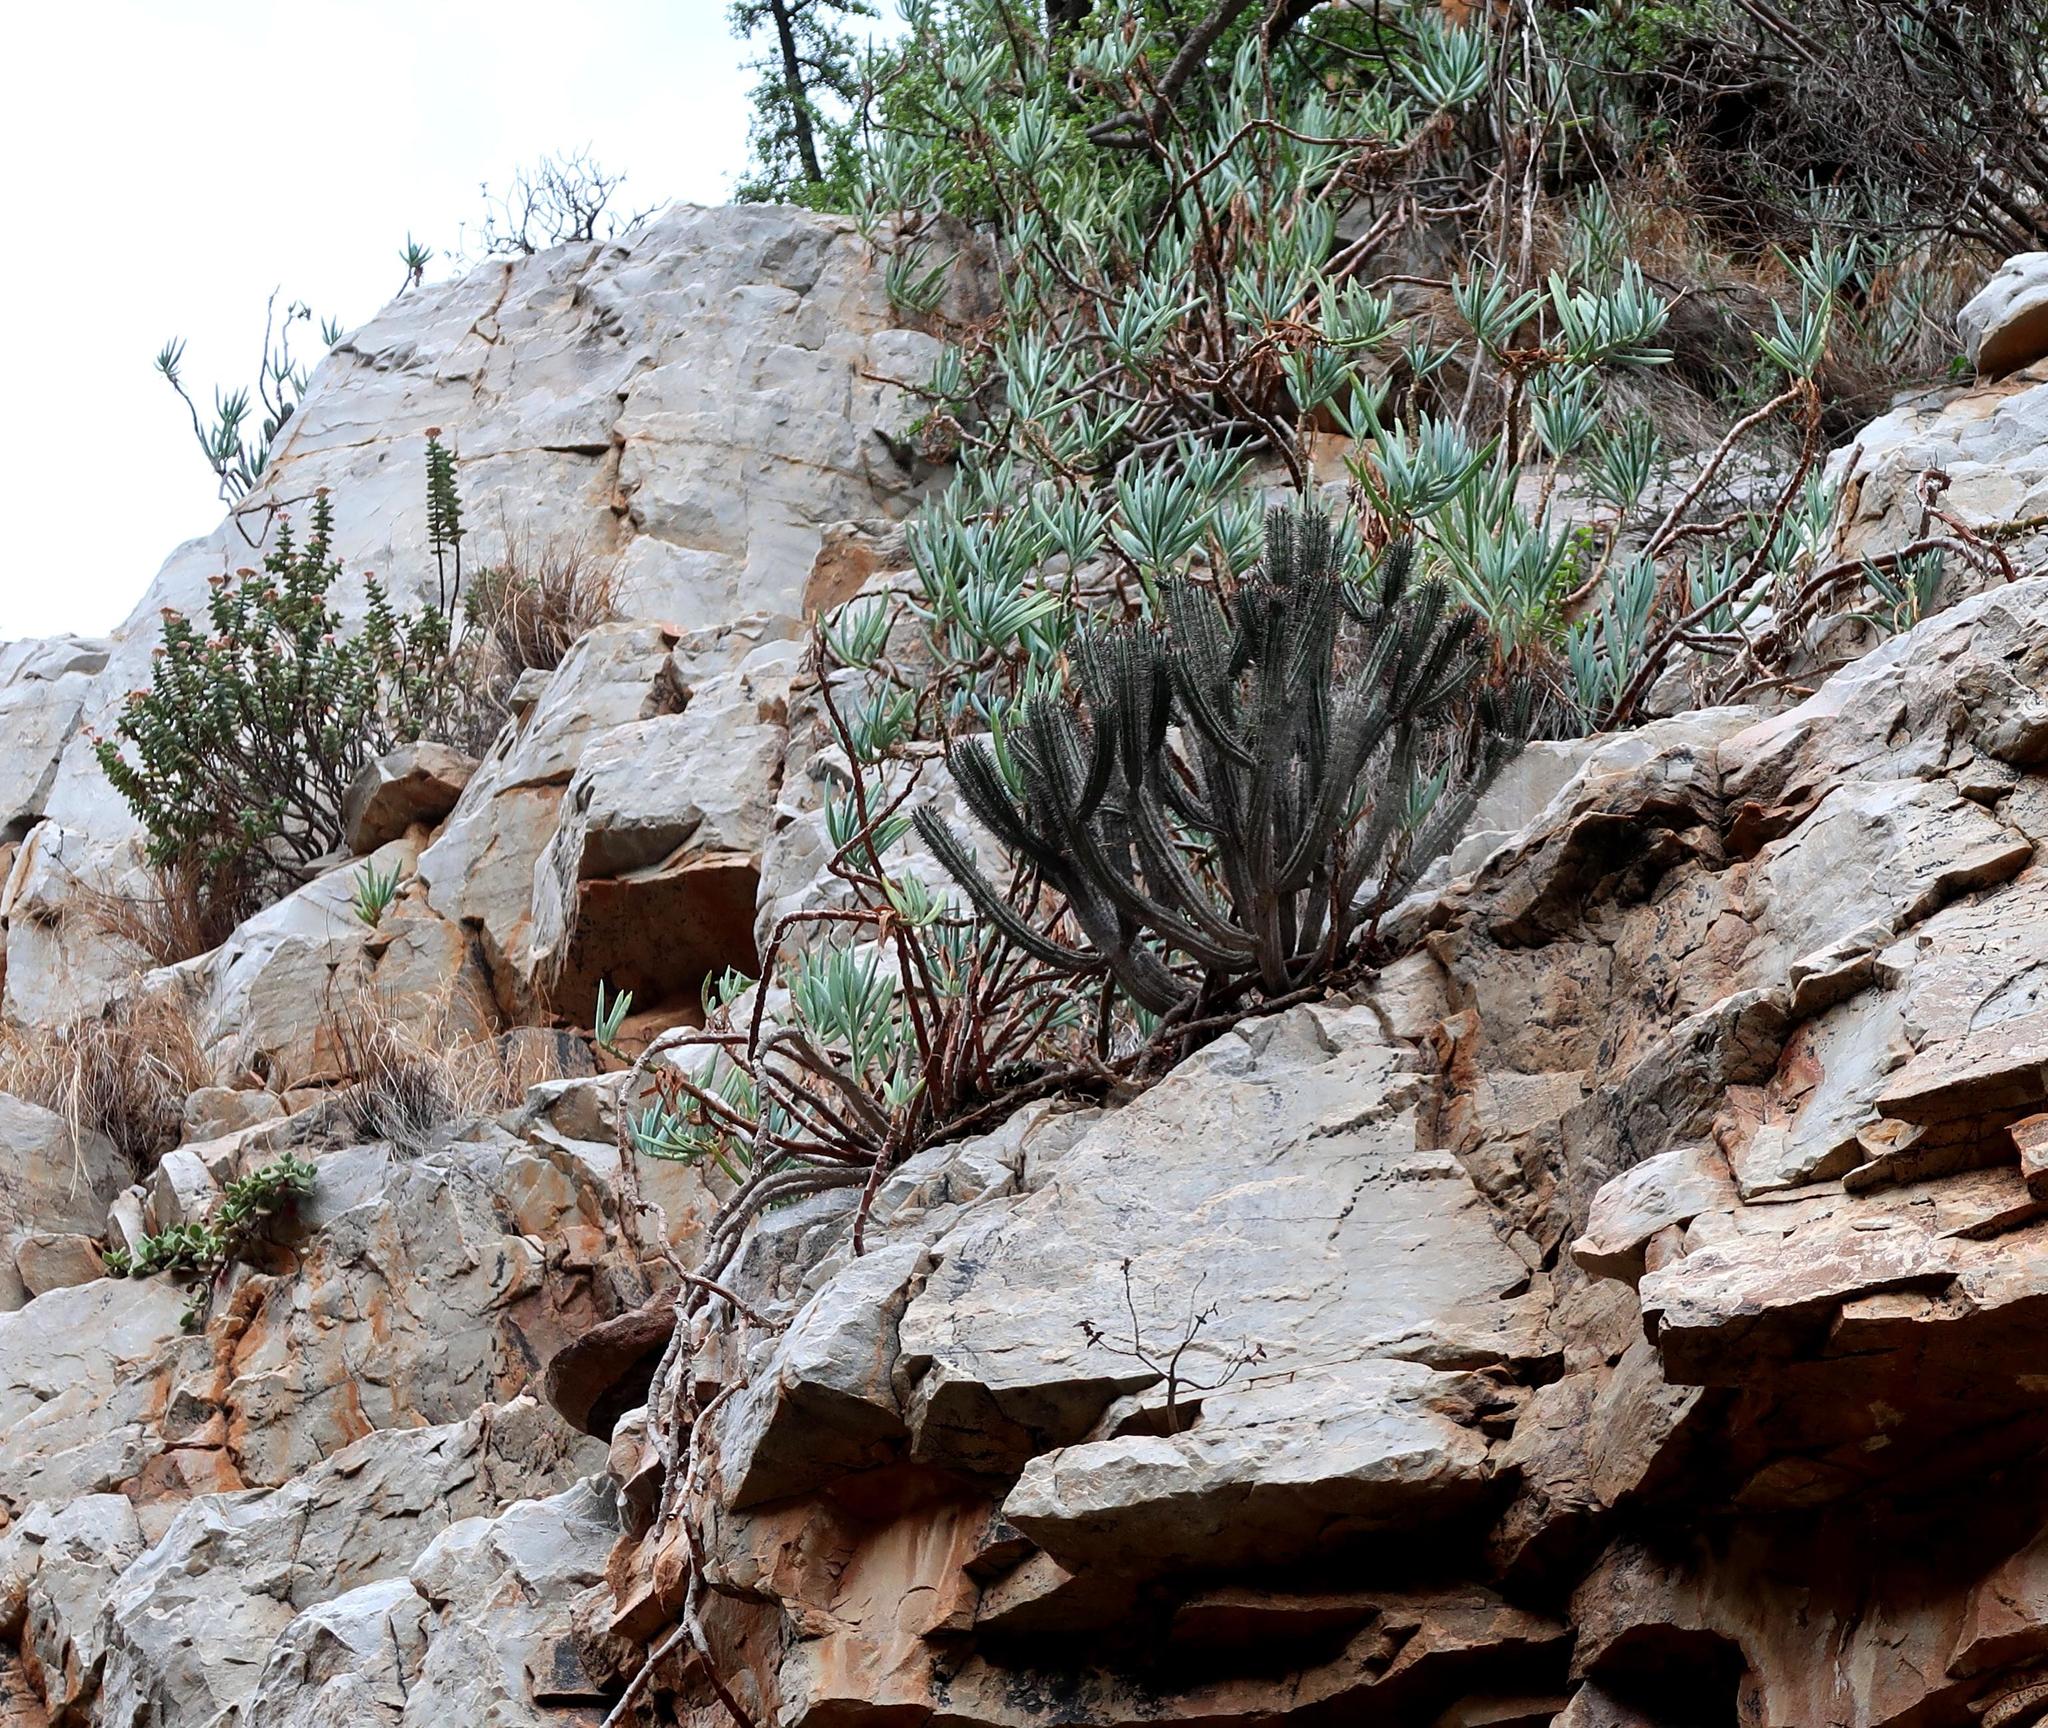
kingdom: Plantae
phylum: Tracheophyta
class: Magnoliopsida
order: Malpighiales
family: Euphorbiaceae
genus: Euphorbia
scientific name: Euphorbia heptagona
